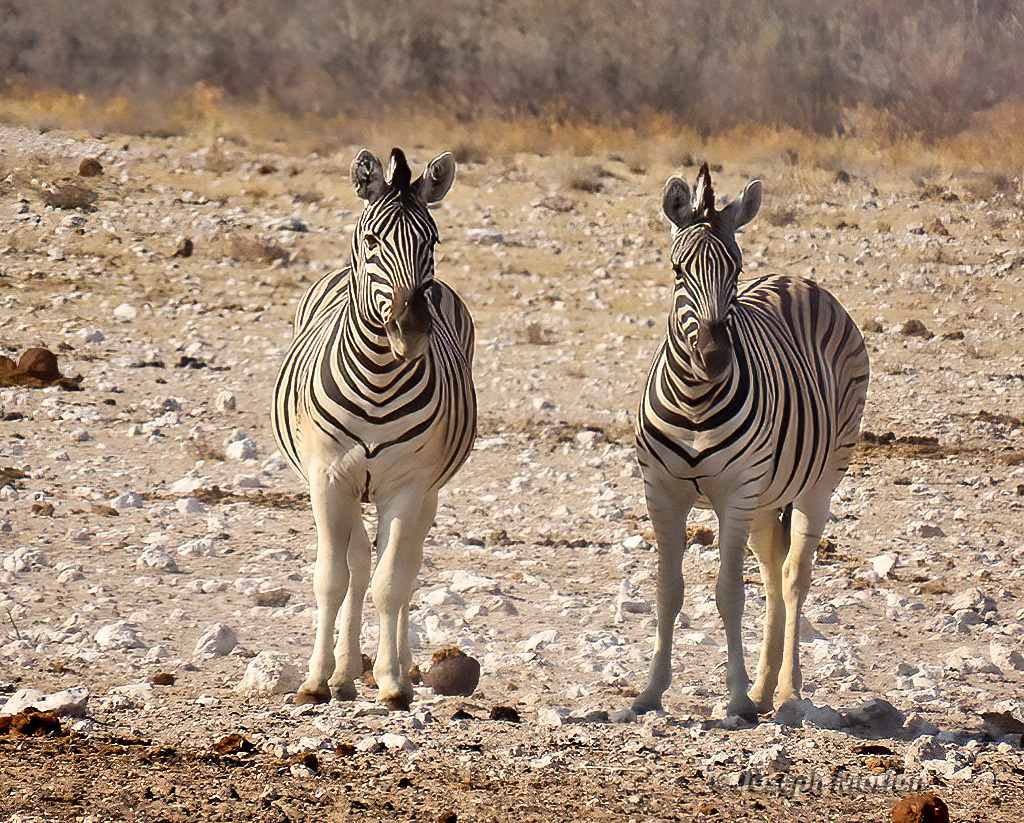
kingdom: Animalia
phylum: Chordata
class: Mammalia
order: Perissodactyla
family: Equidae
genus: Equus
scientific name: Equus quagga
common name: Plains zebra
